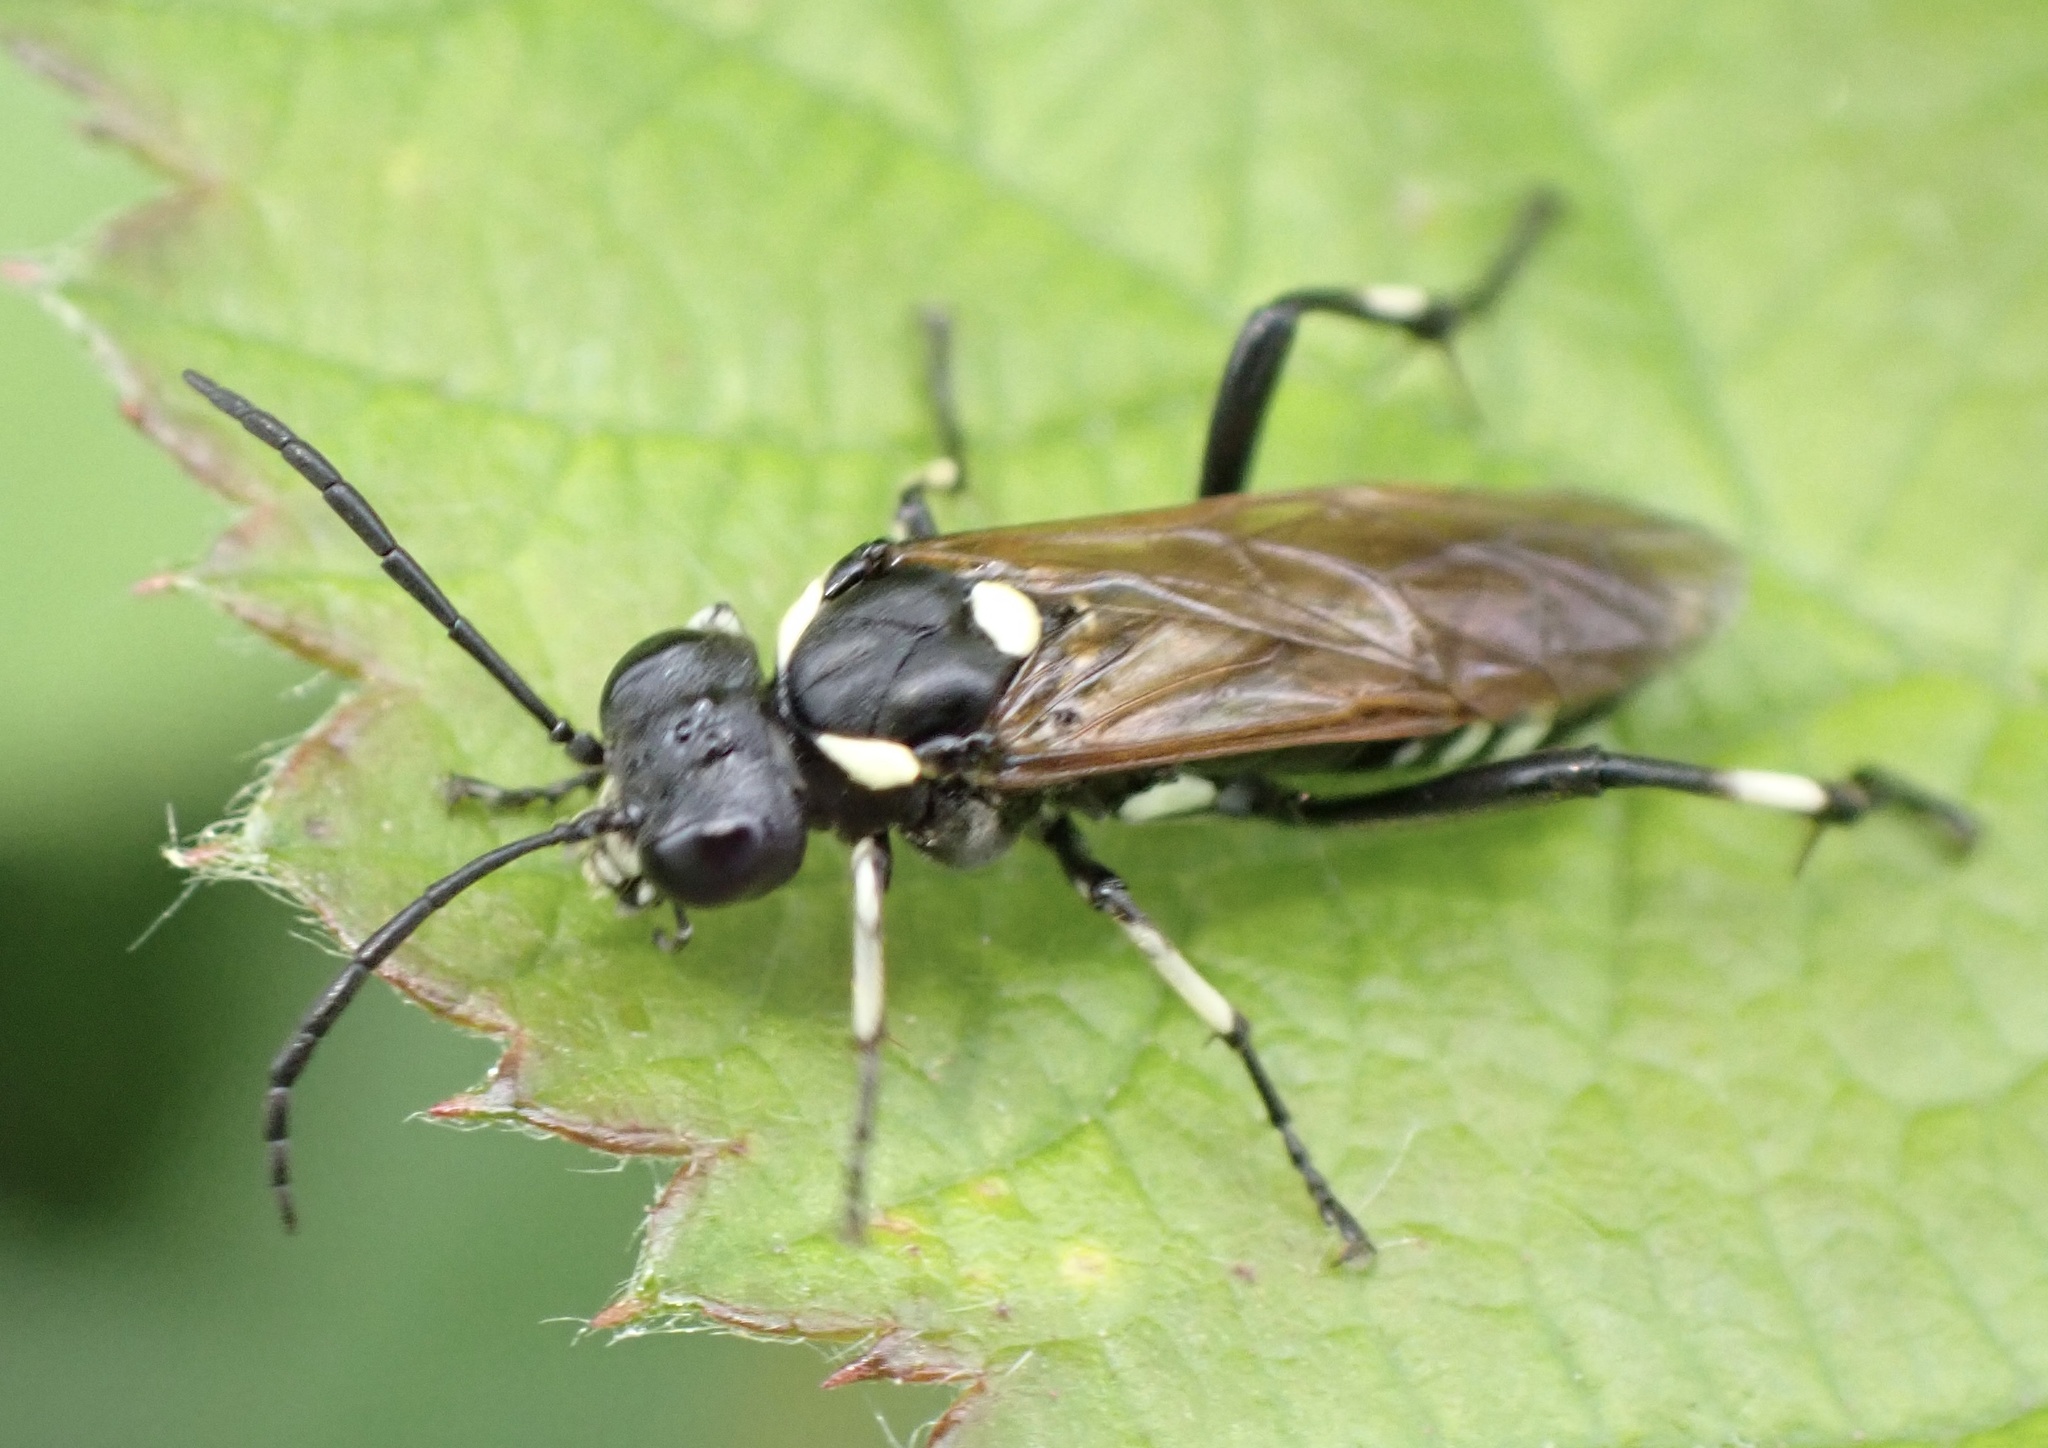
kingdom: Animalia
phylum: Arthropoda
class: Insecta
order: Hymenoptera
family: Tenthredinidae
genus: Macrophya
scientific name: Macrophya duodecimpunctata
